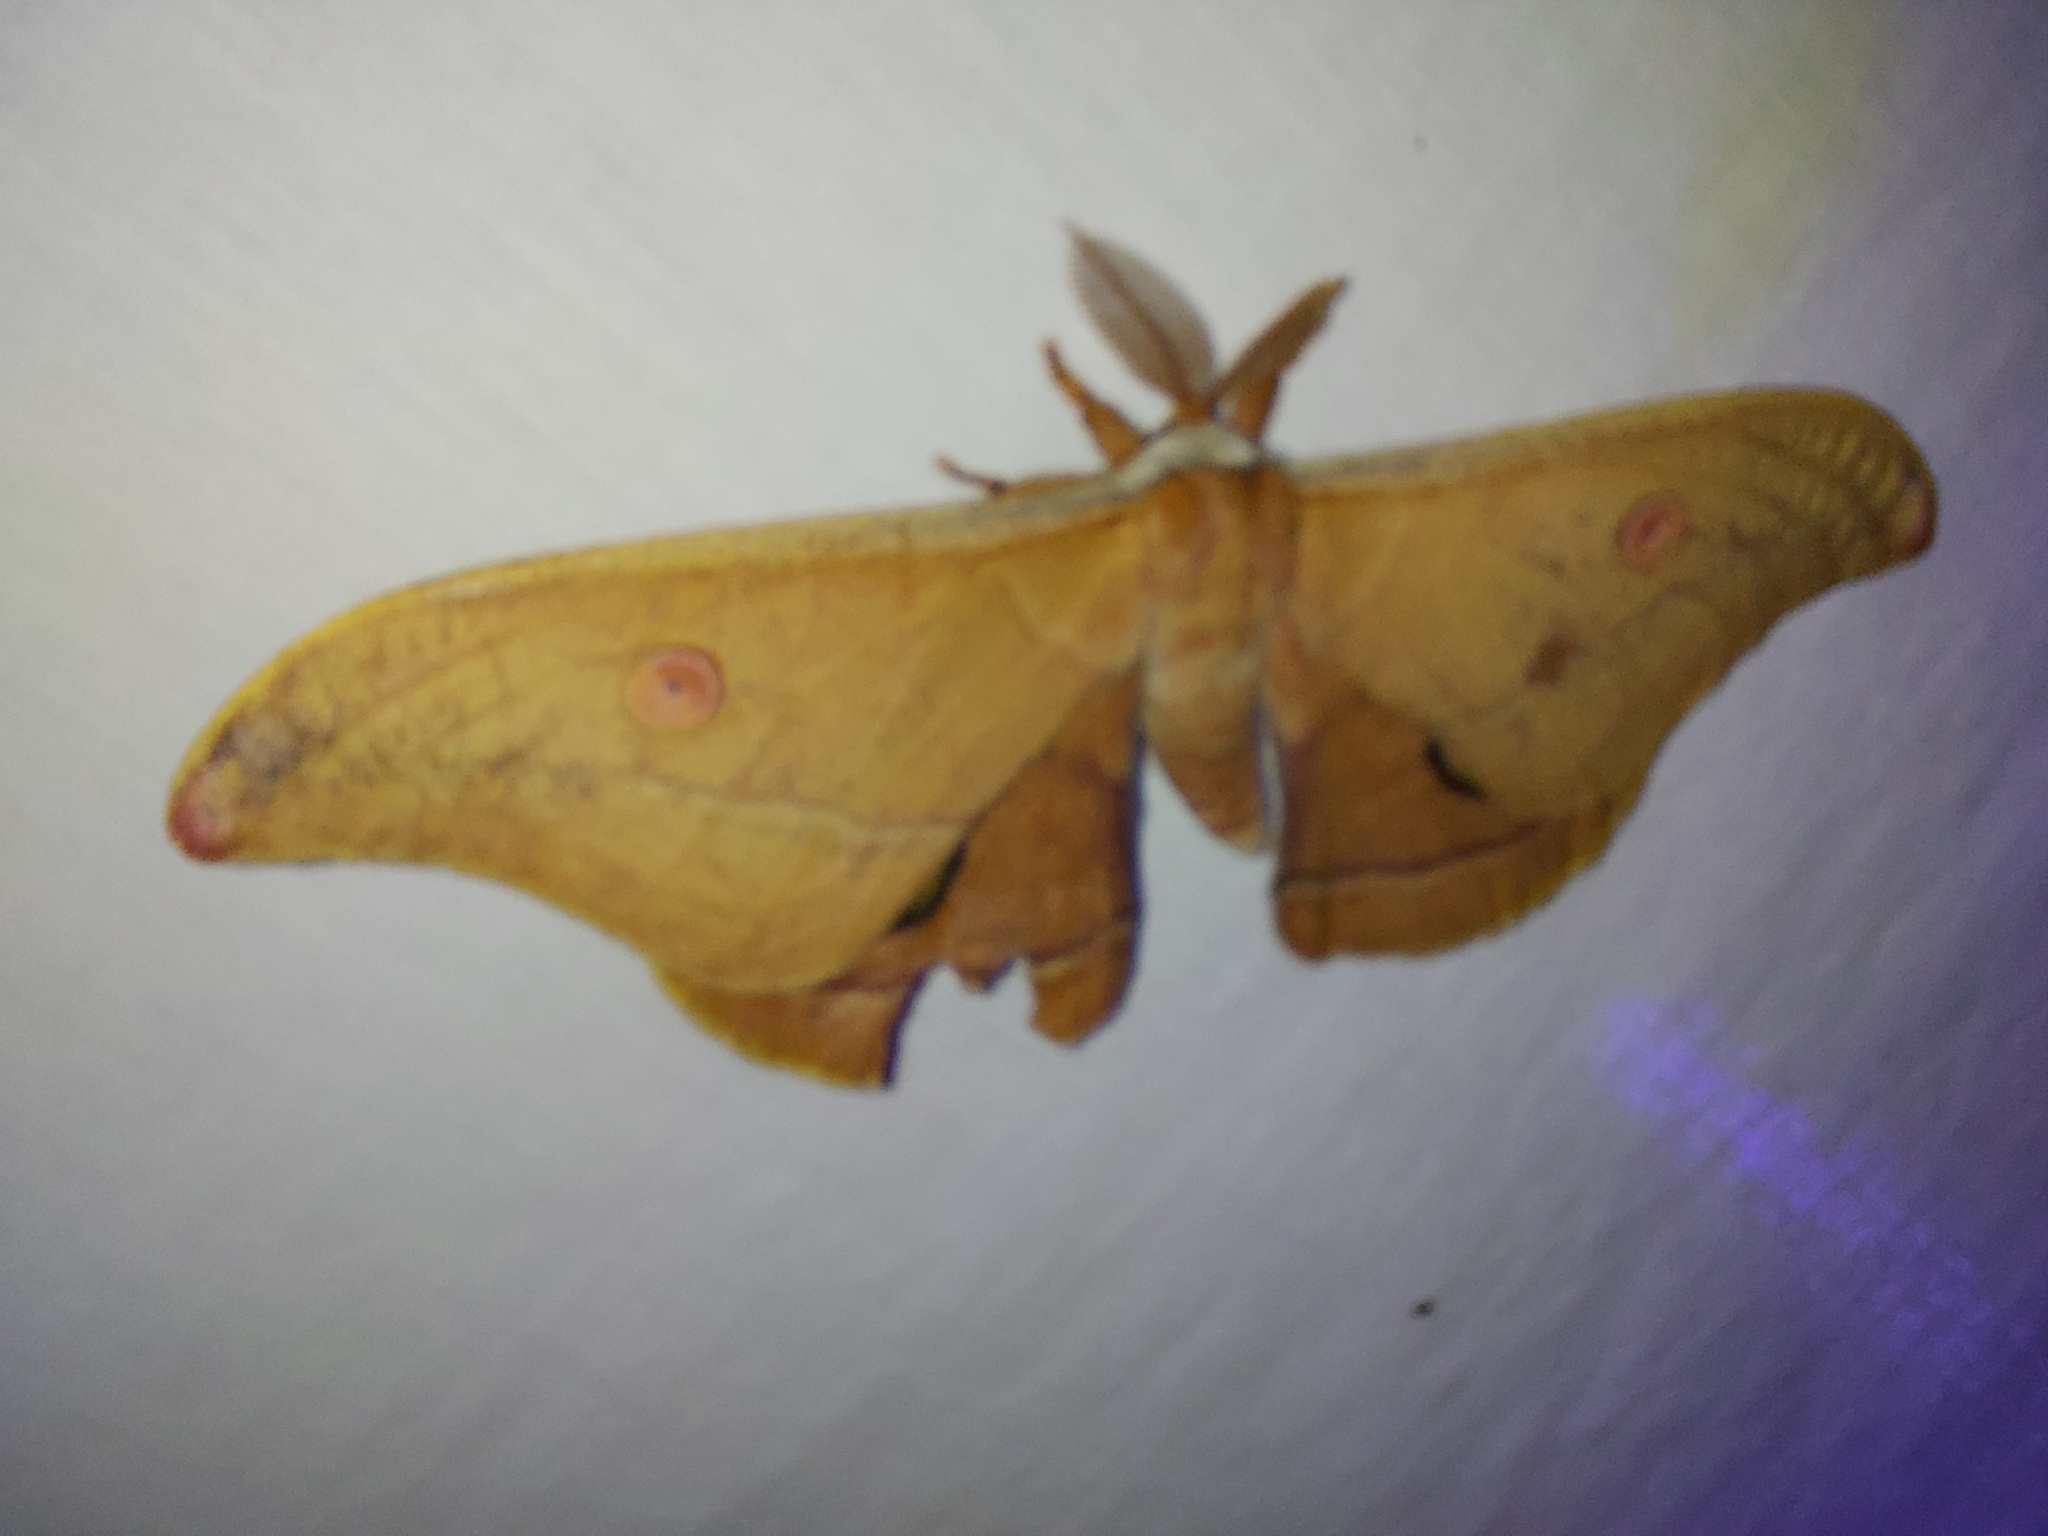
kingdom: Animalia
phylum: Arthropoda
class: Insecta
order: Lepidoptera
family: Saturniidae
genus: Opodiphthera
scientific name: Opodiphthera
